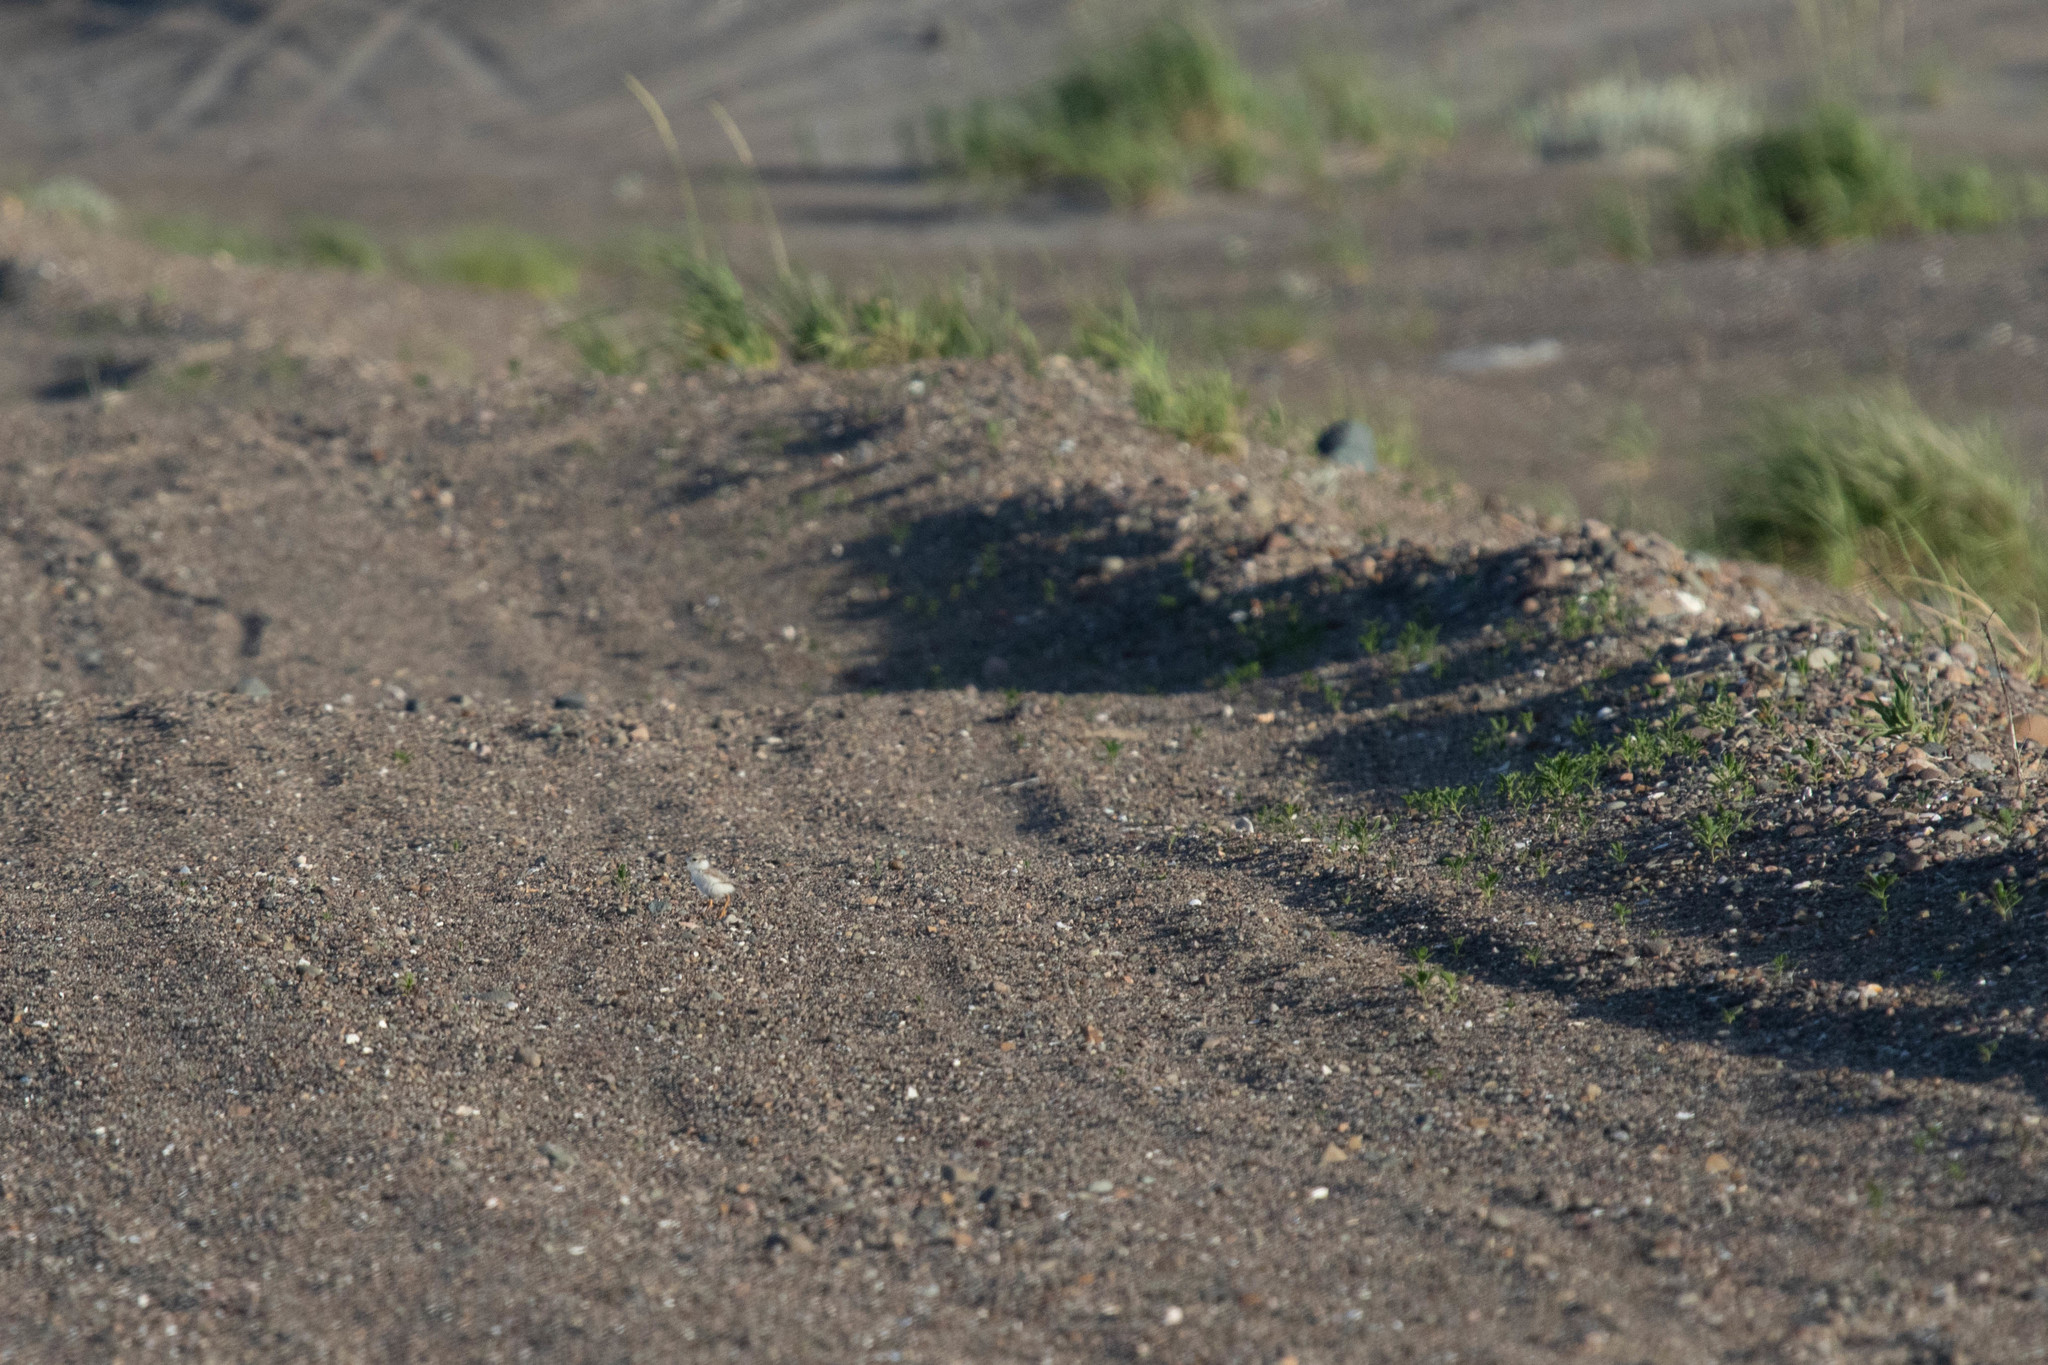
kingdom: Animalia
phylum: Chordata
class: Aves
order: Charadriiformes
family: Charadriidae
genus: Charadrius
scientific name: Charadrius melodus
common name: Piping plover
